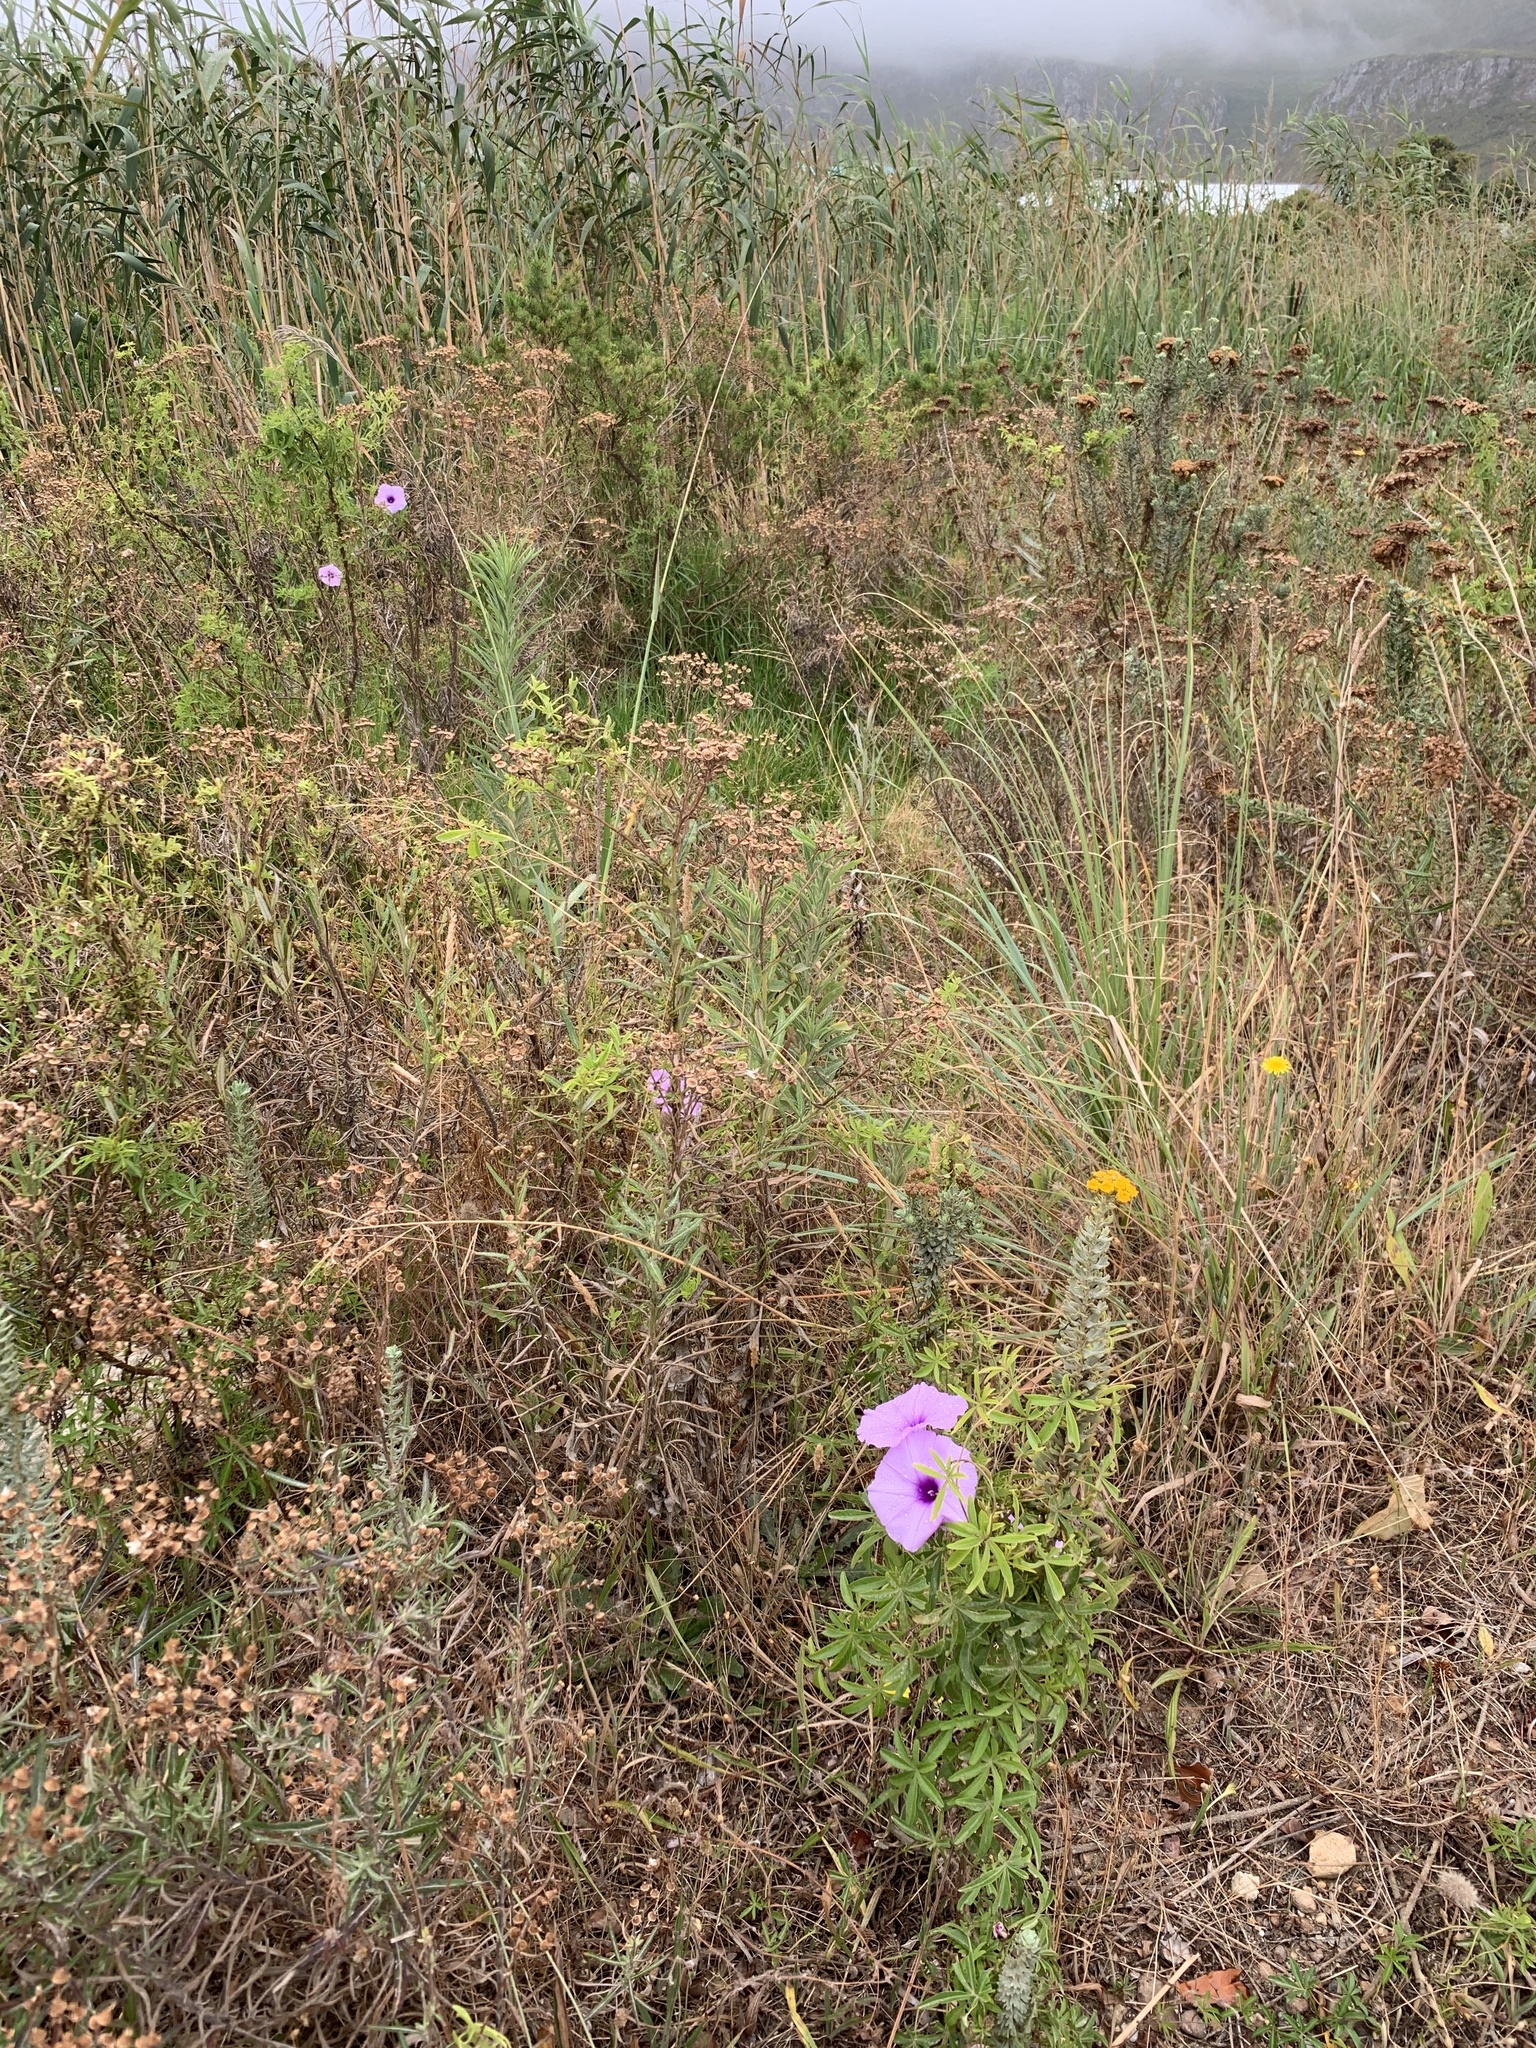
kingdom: Plantae
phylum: Tracheophyta
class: Magnoliopsida
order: Solanales
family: Convolvulaceae
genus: Ipomoea
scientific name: Ipomoea cairica
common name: Mile a minute vine
